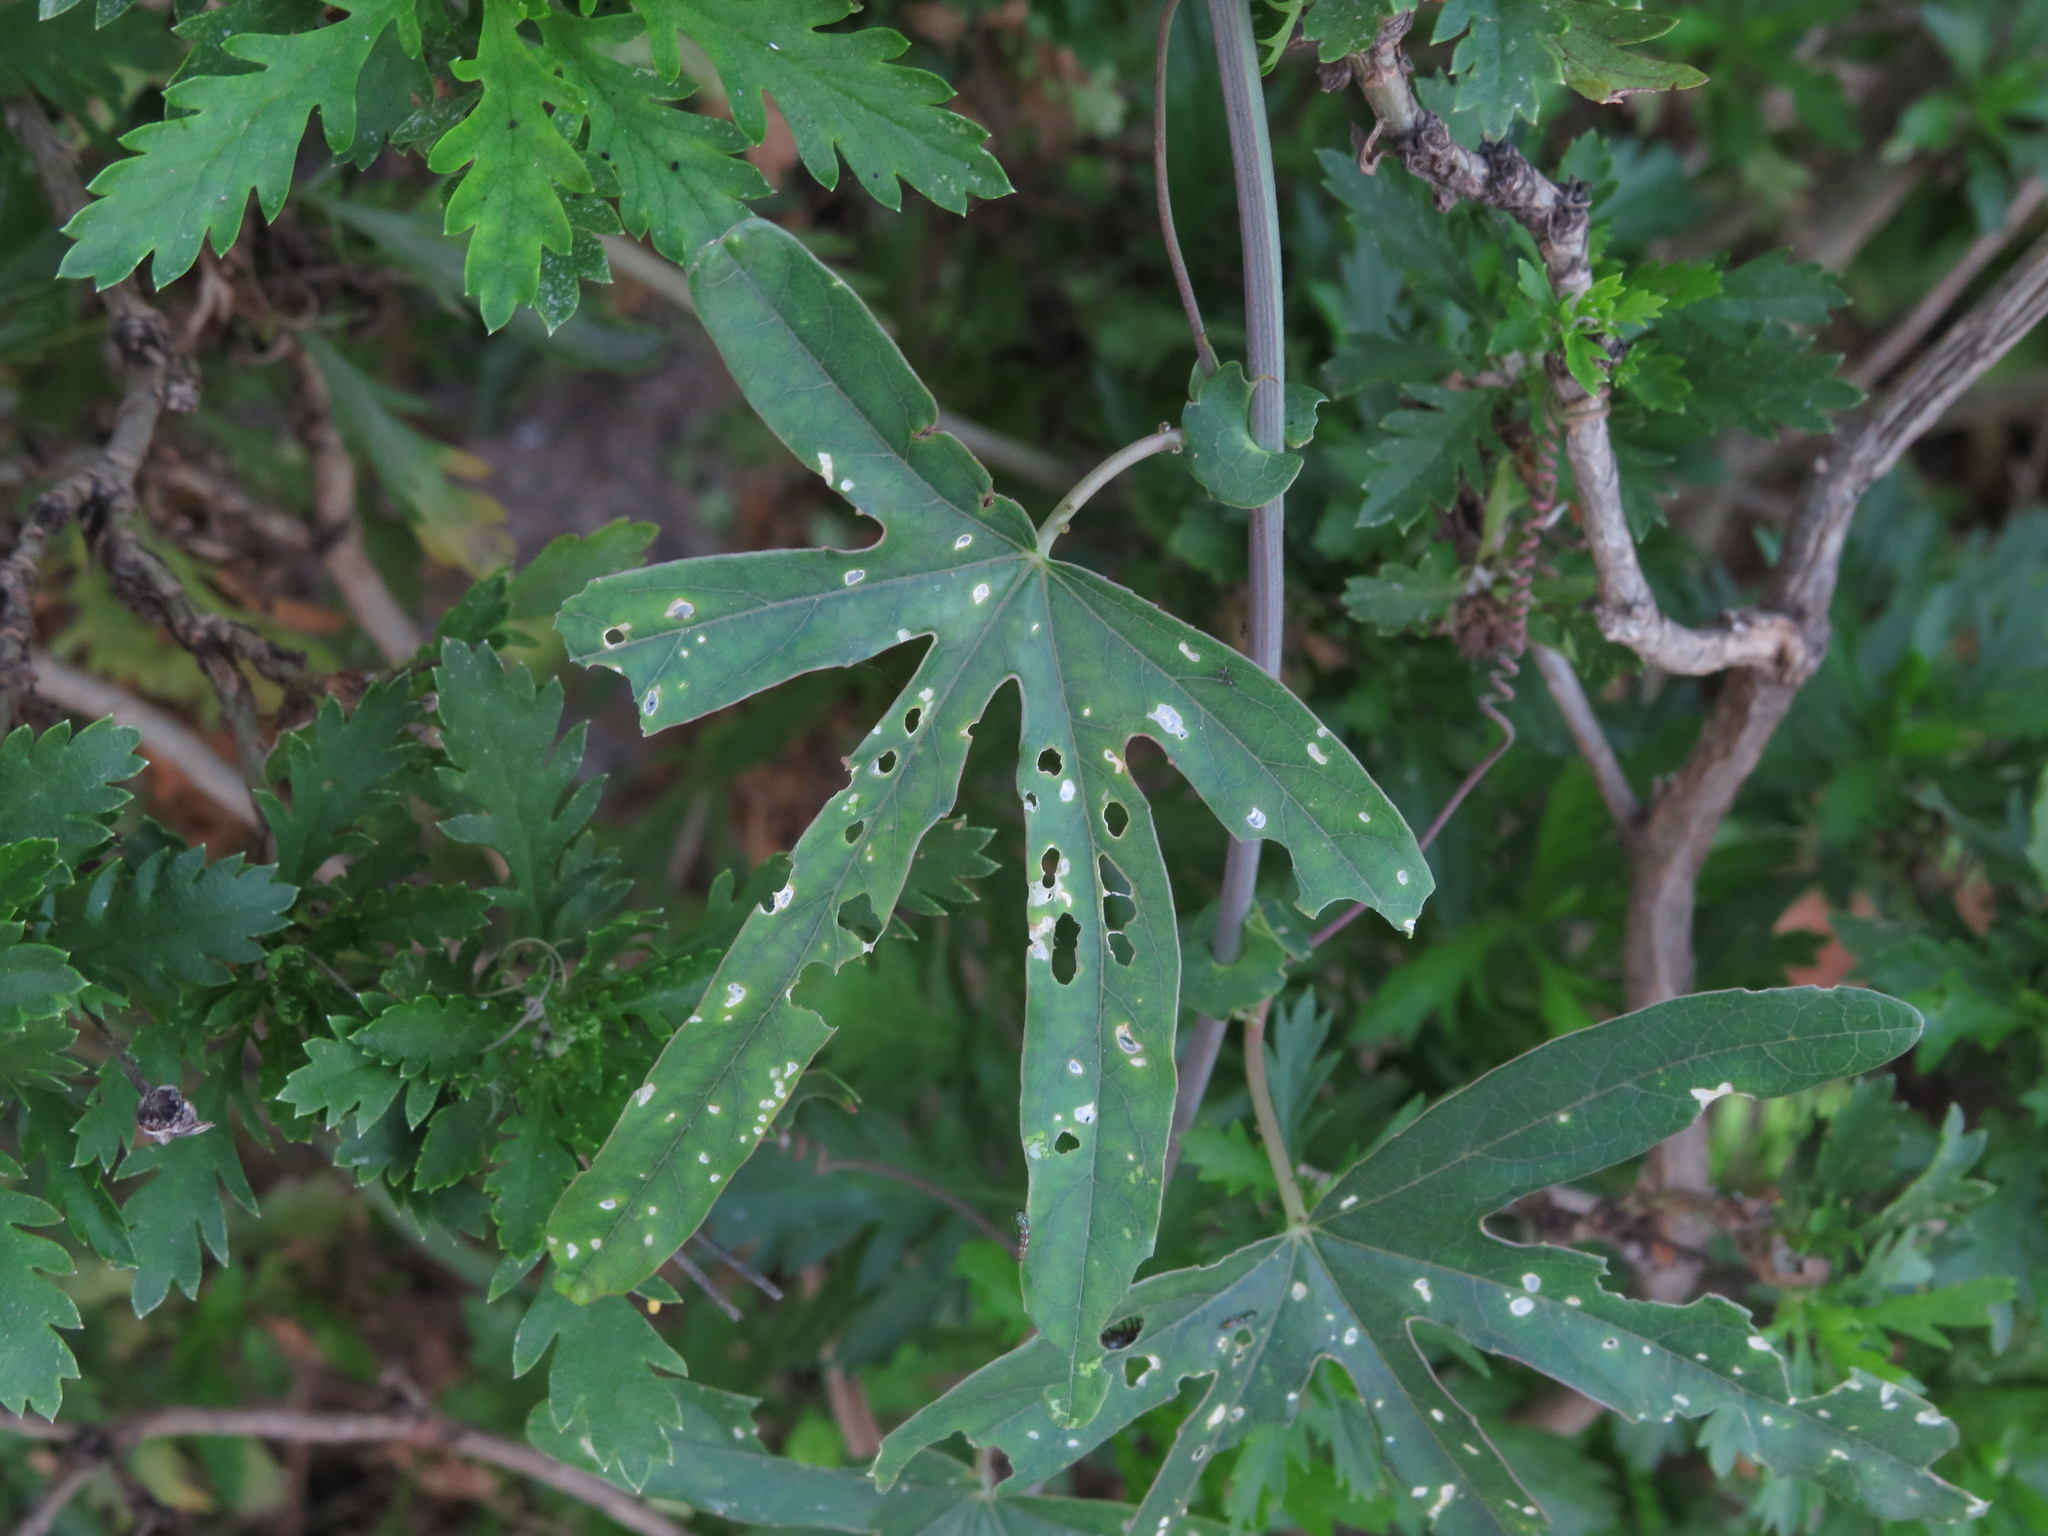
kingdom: Plantae
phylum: Tracheophyta
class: Magnoliopsida
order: Malpighiales
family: Passifloraceae
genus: Passiflora
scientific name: Passiflora caerulea
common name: Blue passionflower
